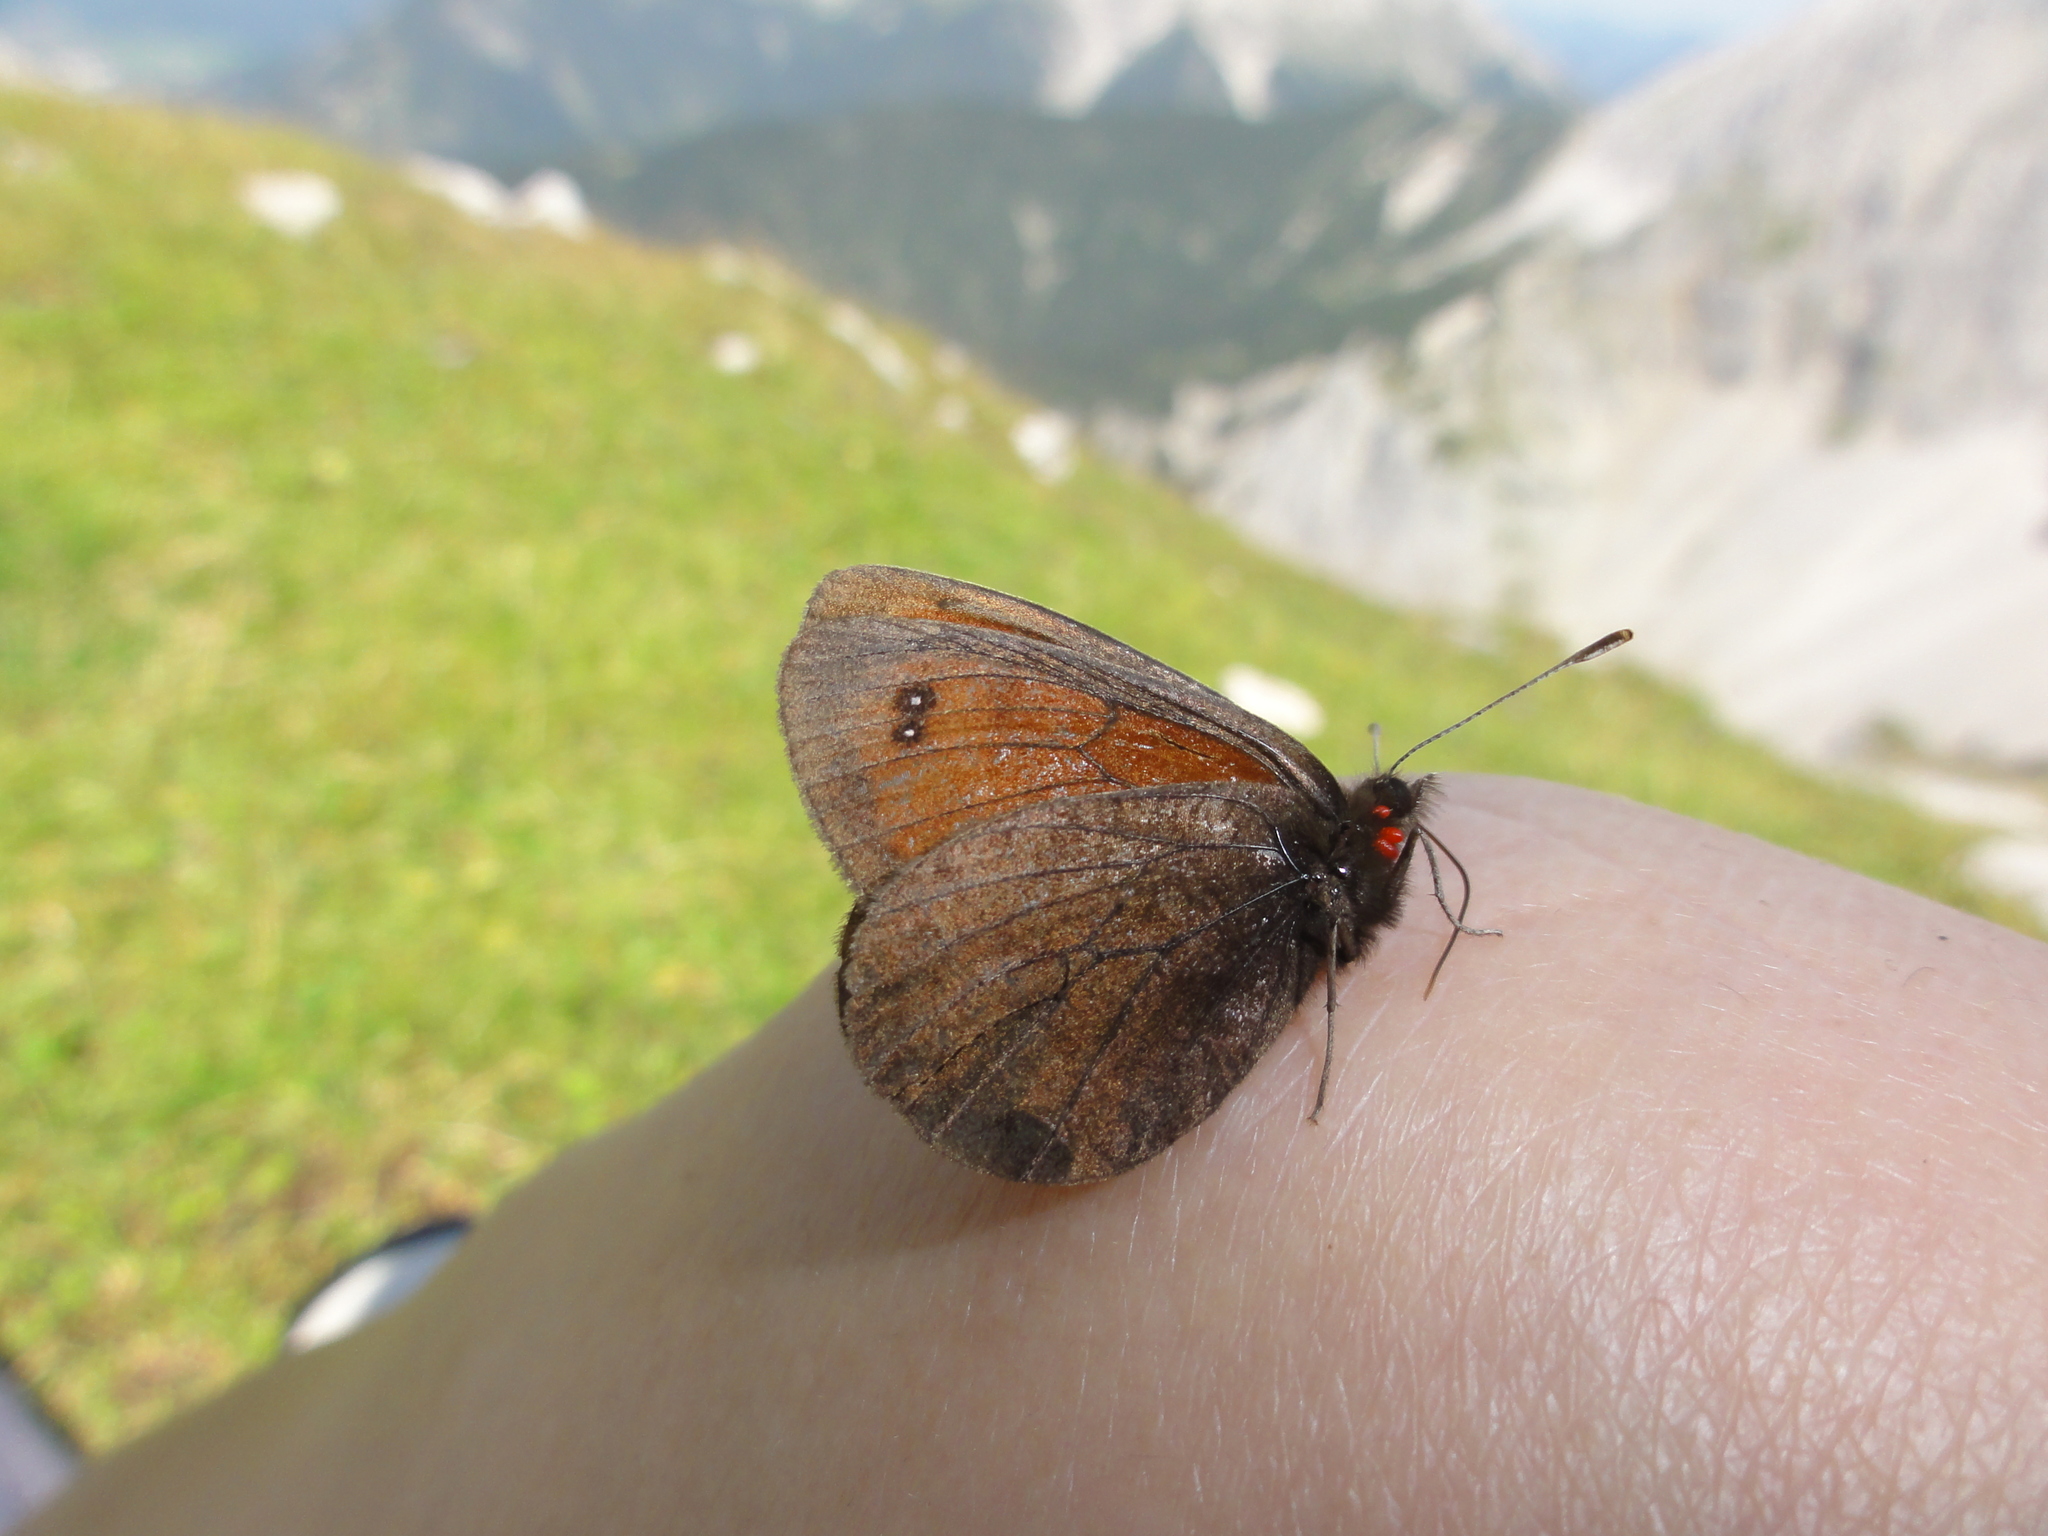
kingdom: Animalia
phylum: Arthropoda
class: Insecta
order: Lepidoptera
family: Nymphalidae
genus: Erebia
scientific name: Erebia gorge
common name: Silky ringlet
